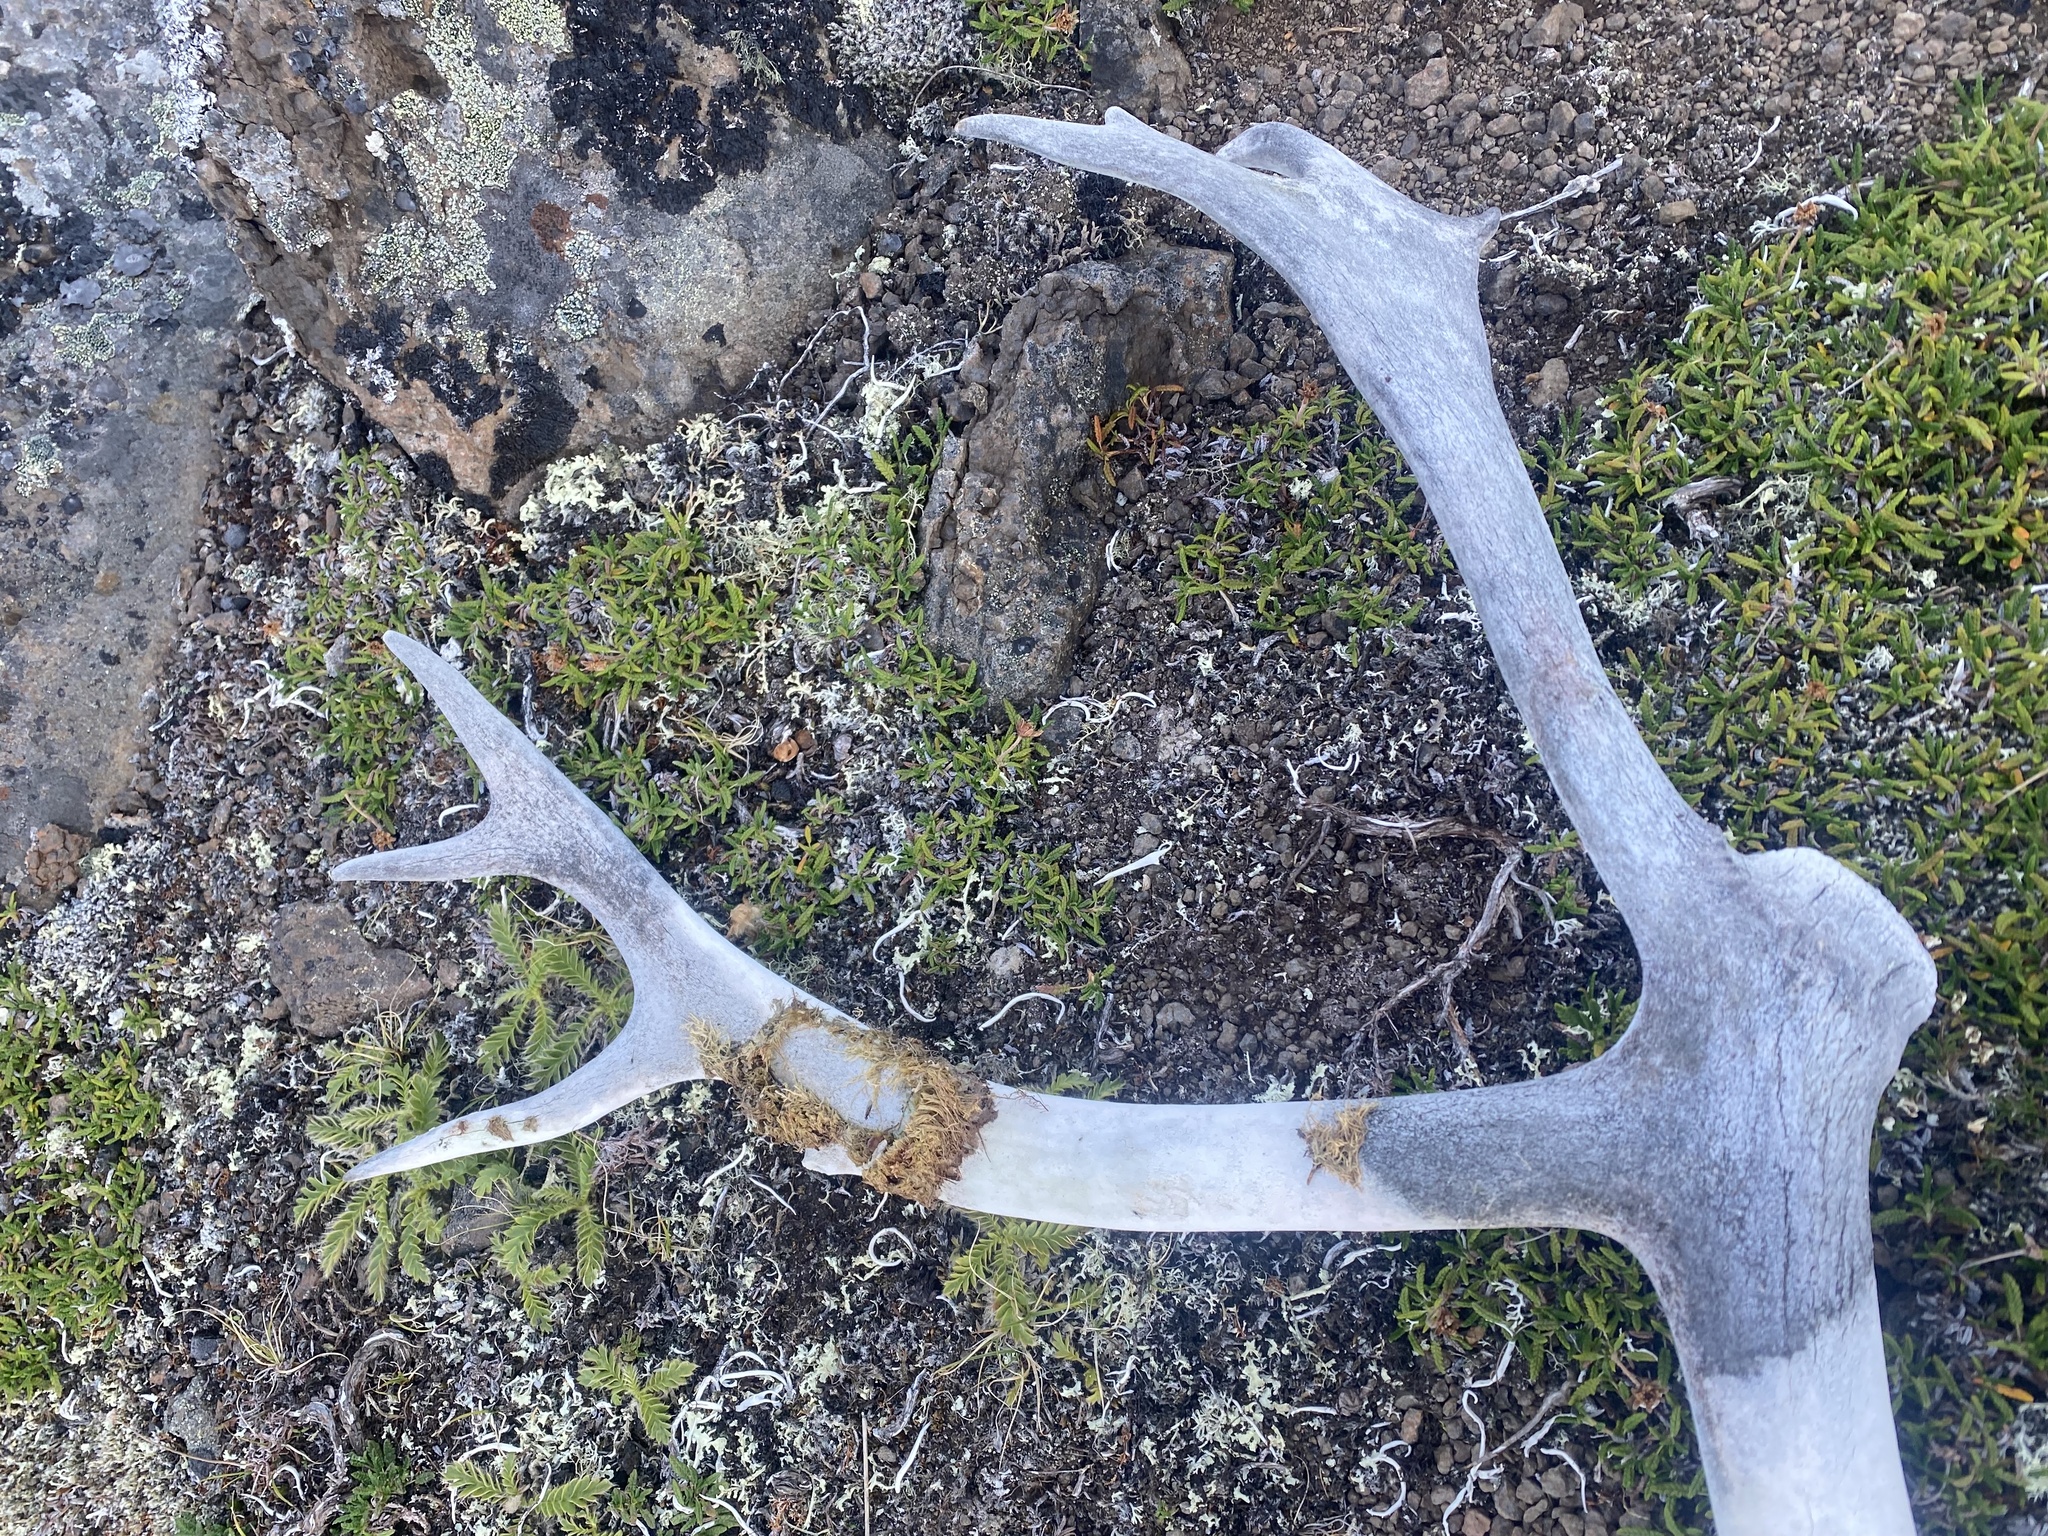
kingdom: Animalia
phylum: Chordata
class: Mammalia
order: Artiodactyla
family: Cervidae
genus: Rangifer
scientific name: Rangifer tarandus
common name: Reindeer
